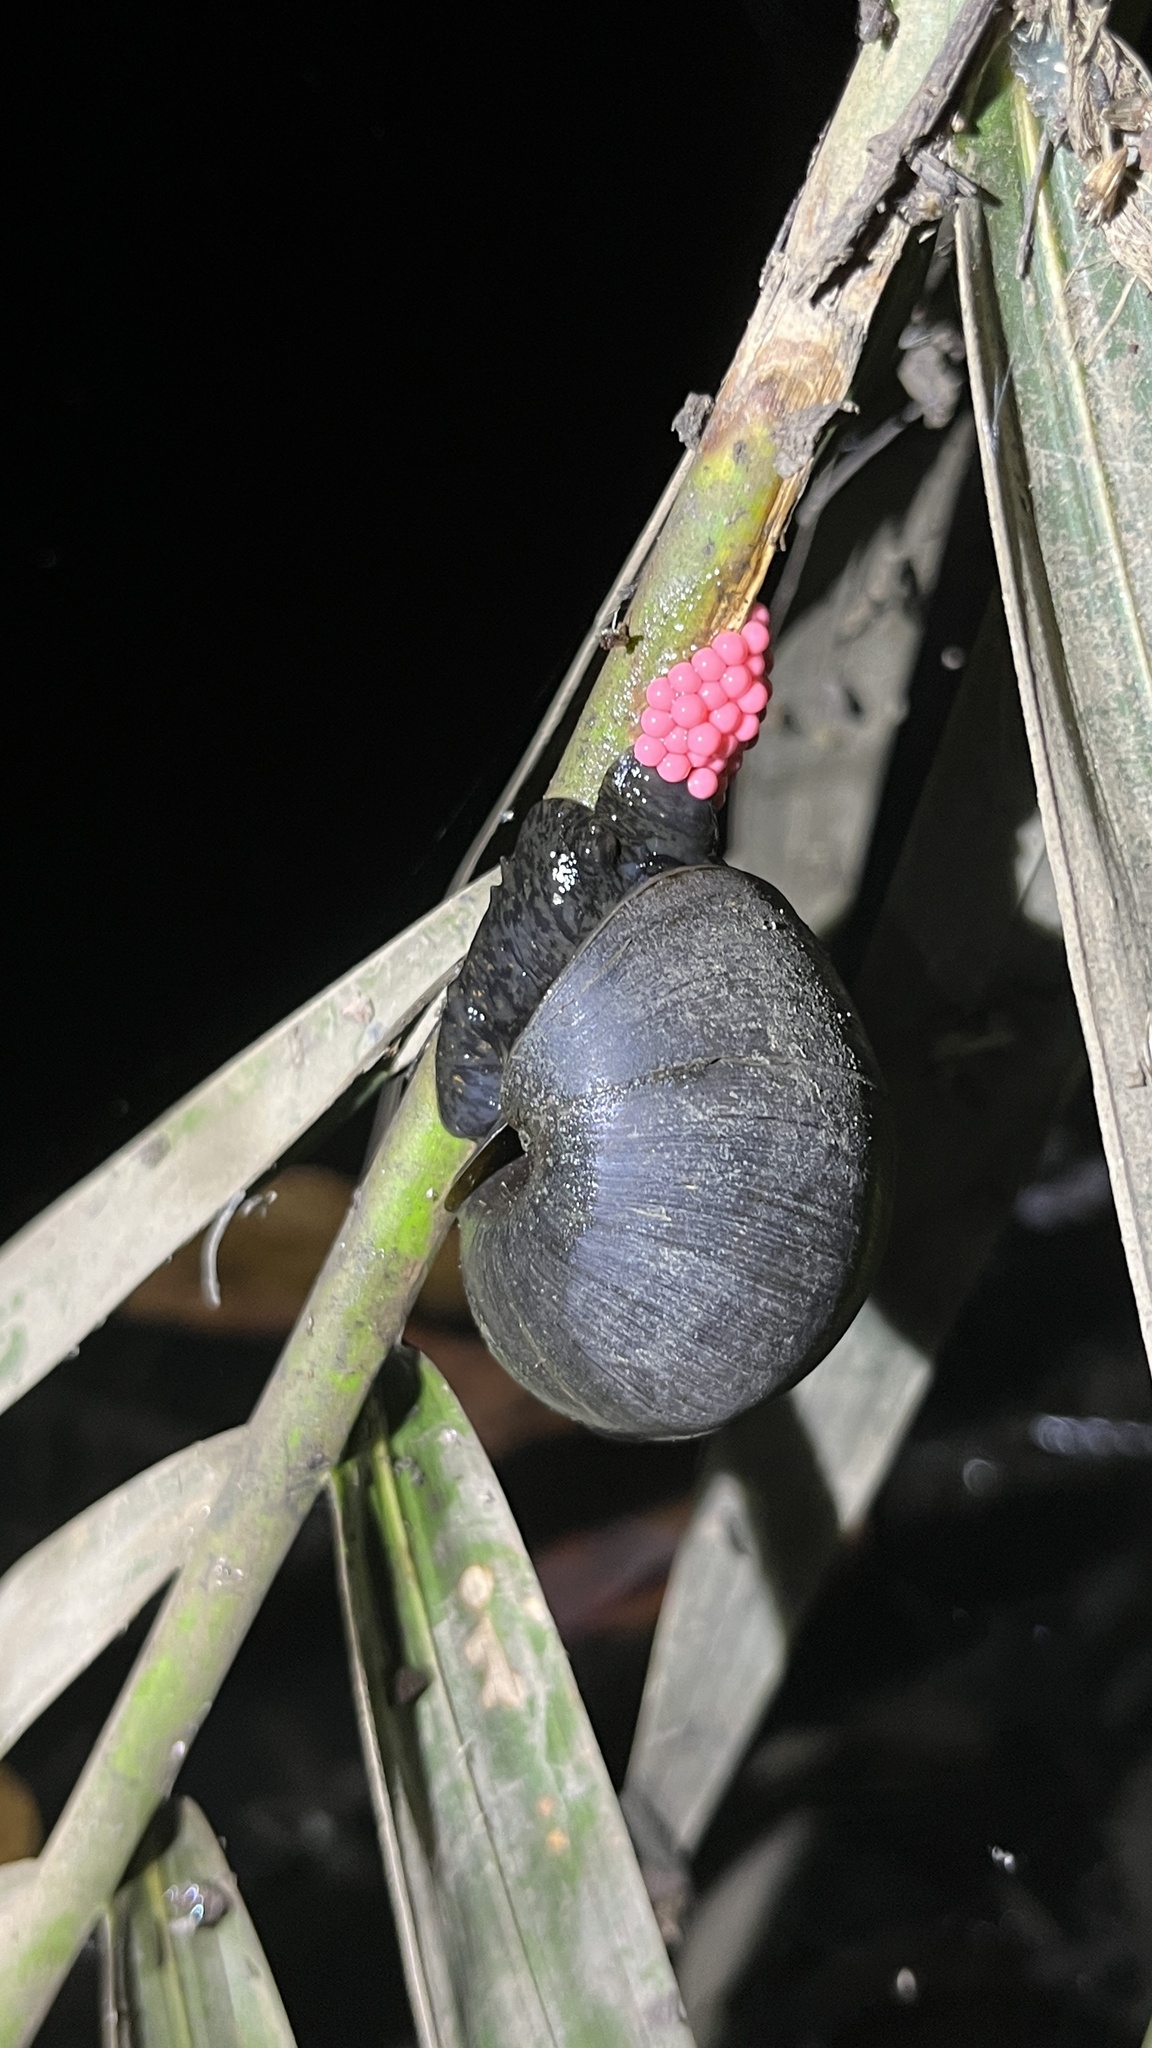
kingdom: Animalia
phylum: Mollusca
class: Gastropoda
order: Architaenioglossa
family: Ampullariidae
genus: Pomacea
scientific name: Pomacea canaliculata
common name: Channeled applesnail
